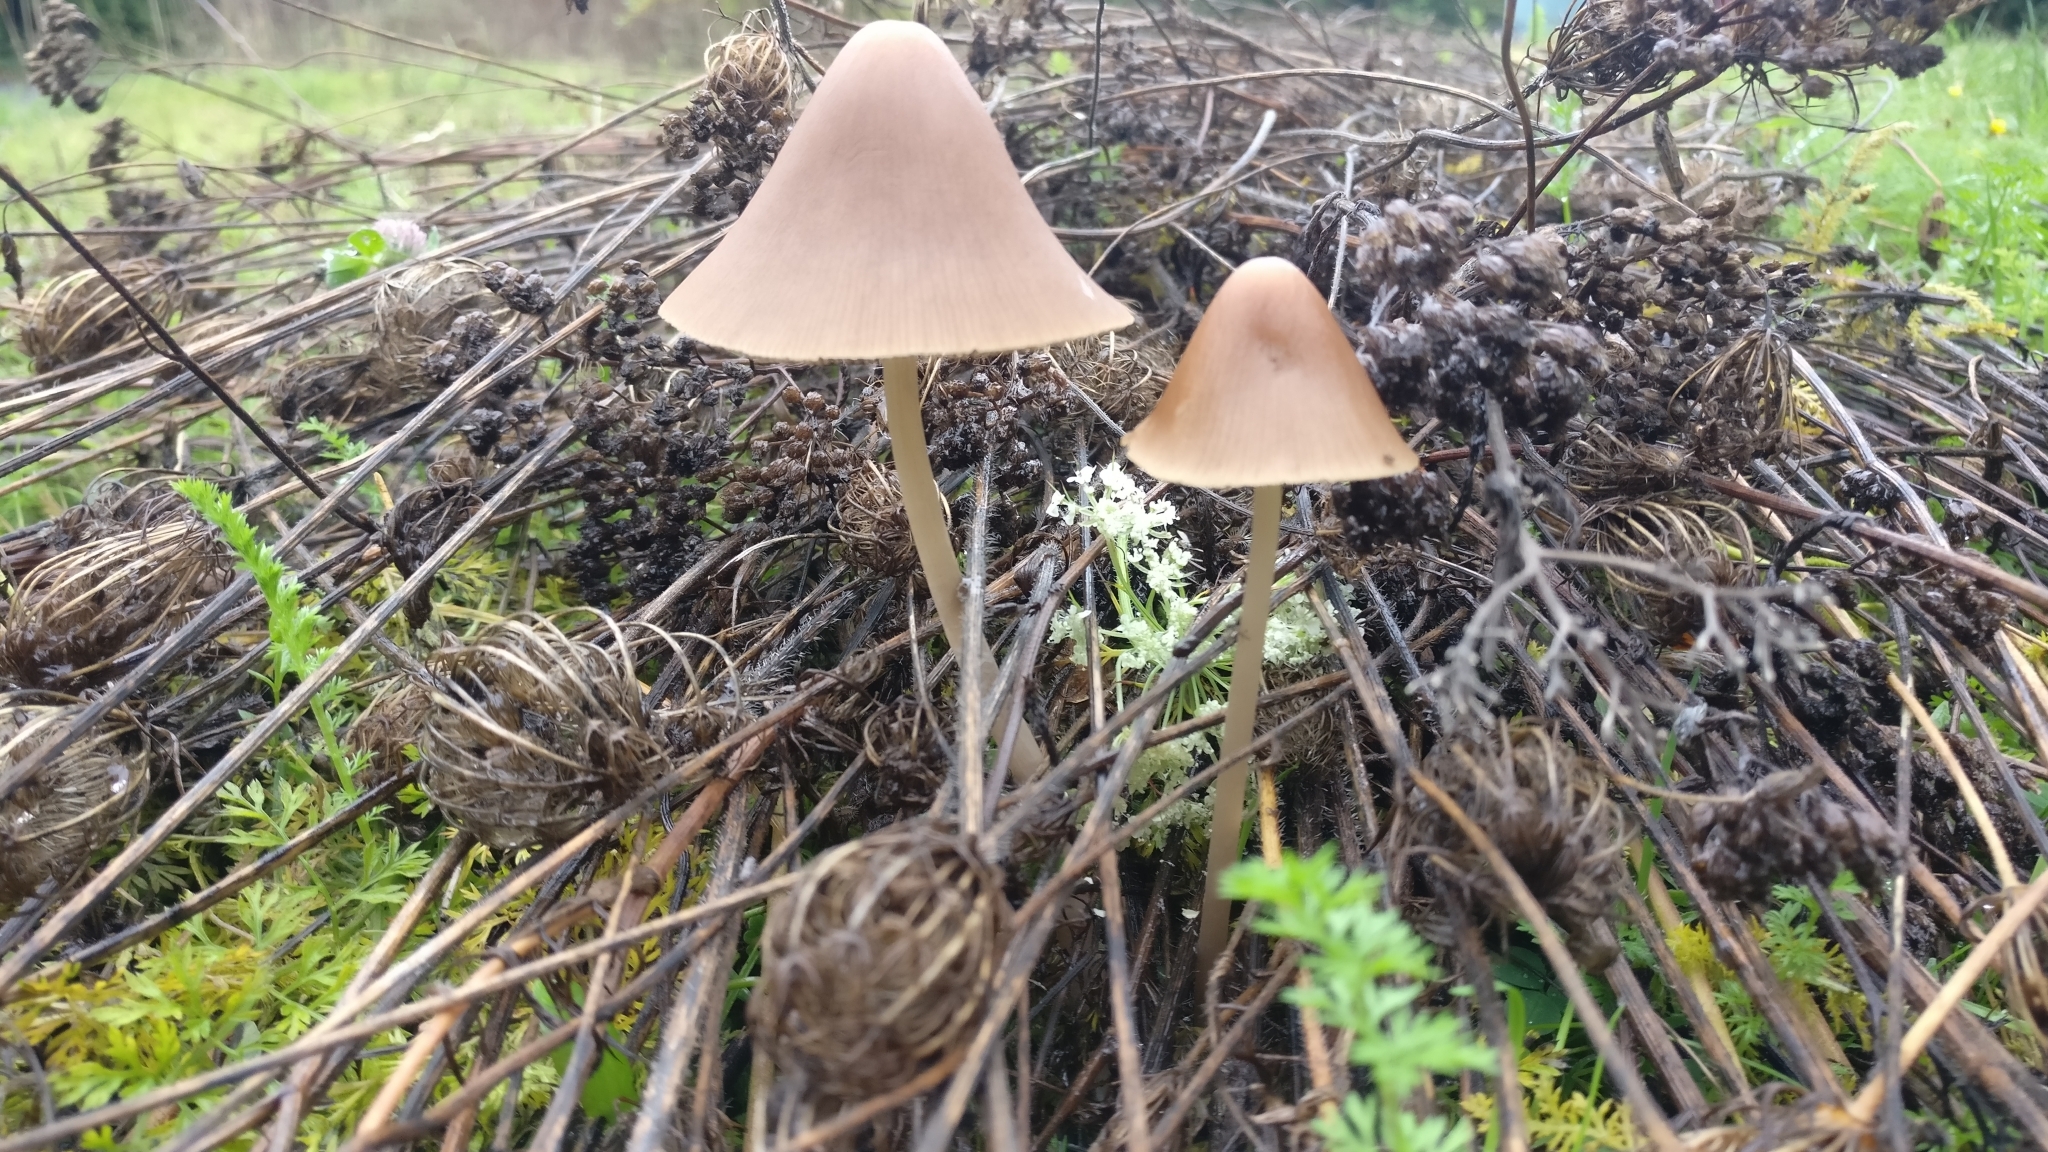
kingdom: Fungi
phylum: Basidiomycota
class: Agaricomycetes
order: Agaricales
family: Psathyrellaceae
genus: Parasola
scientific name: Parasola conopilea
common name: Conical brittlestem
